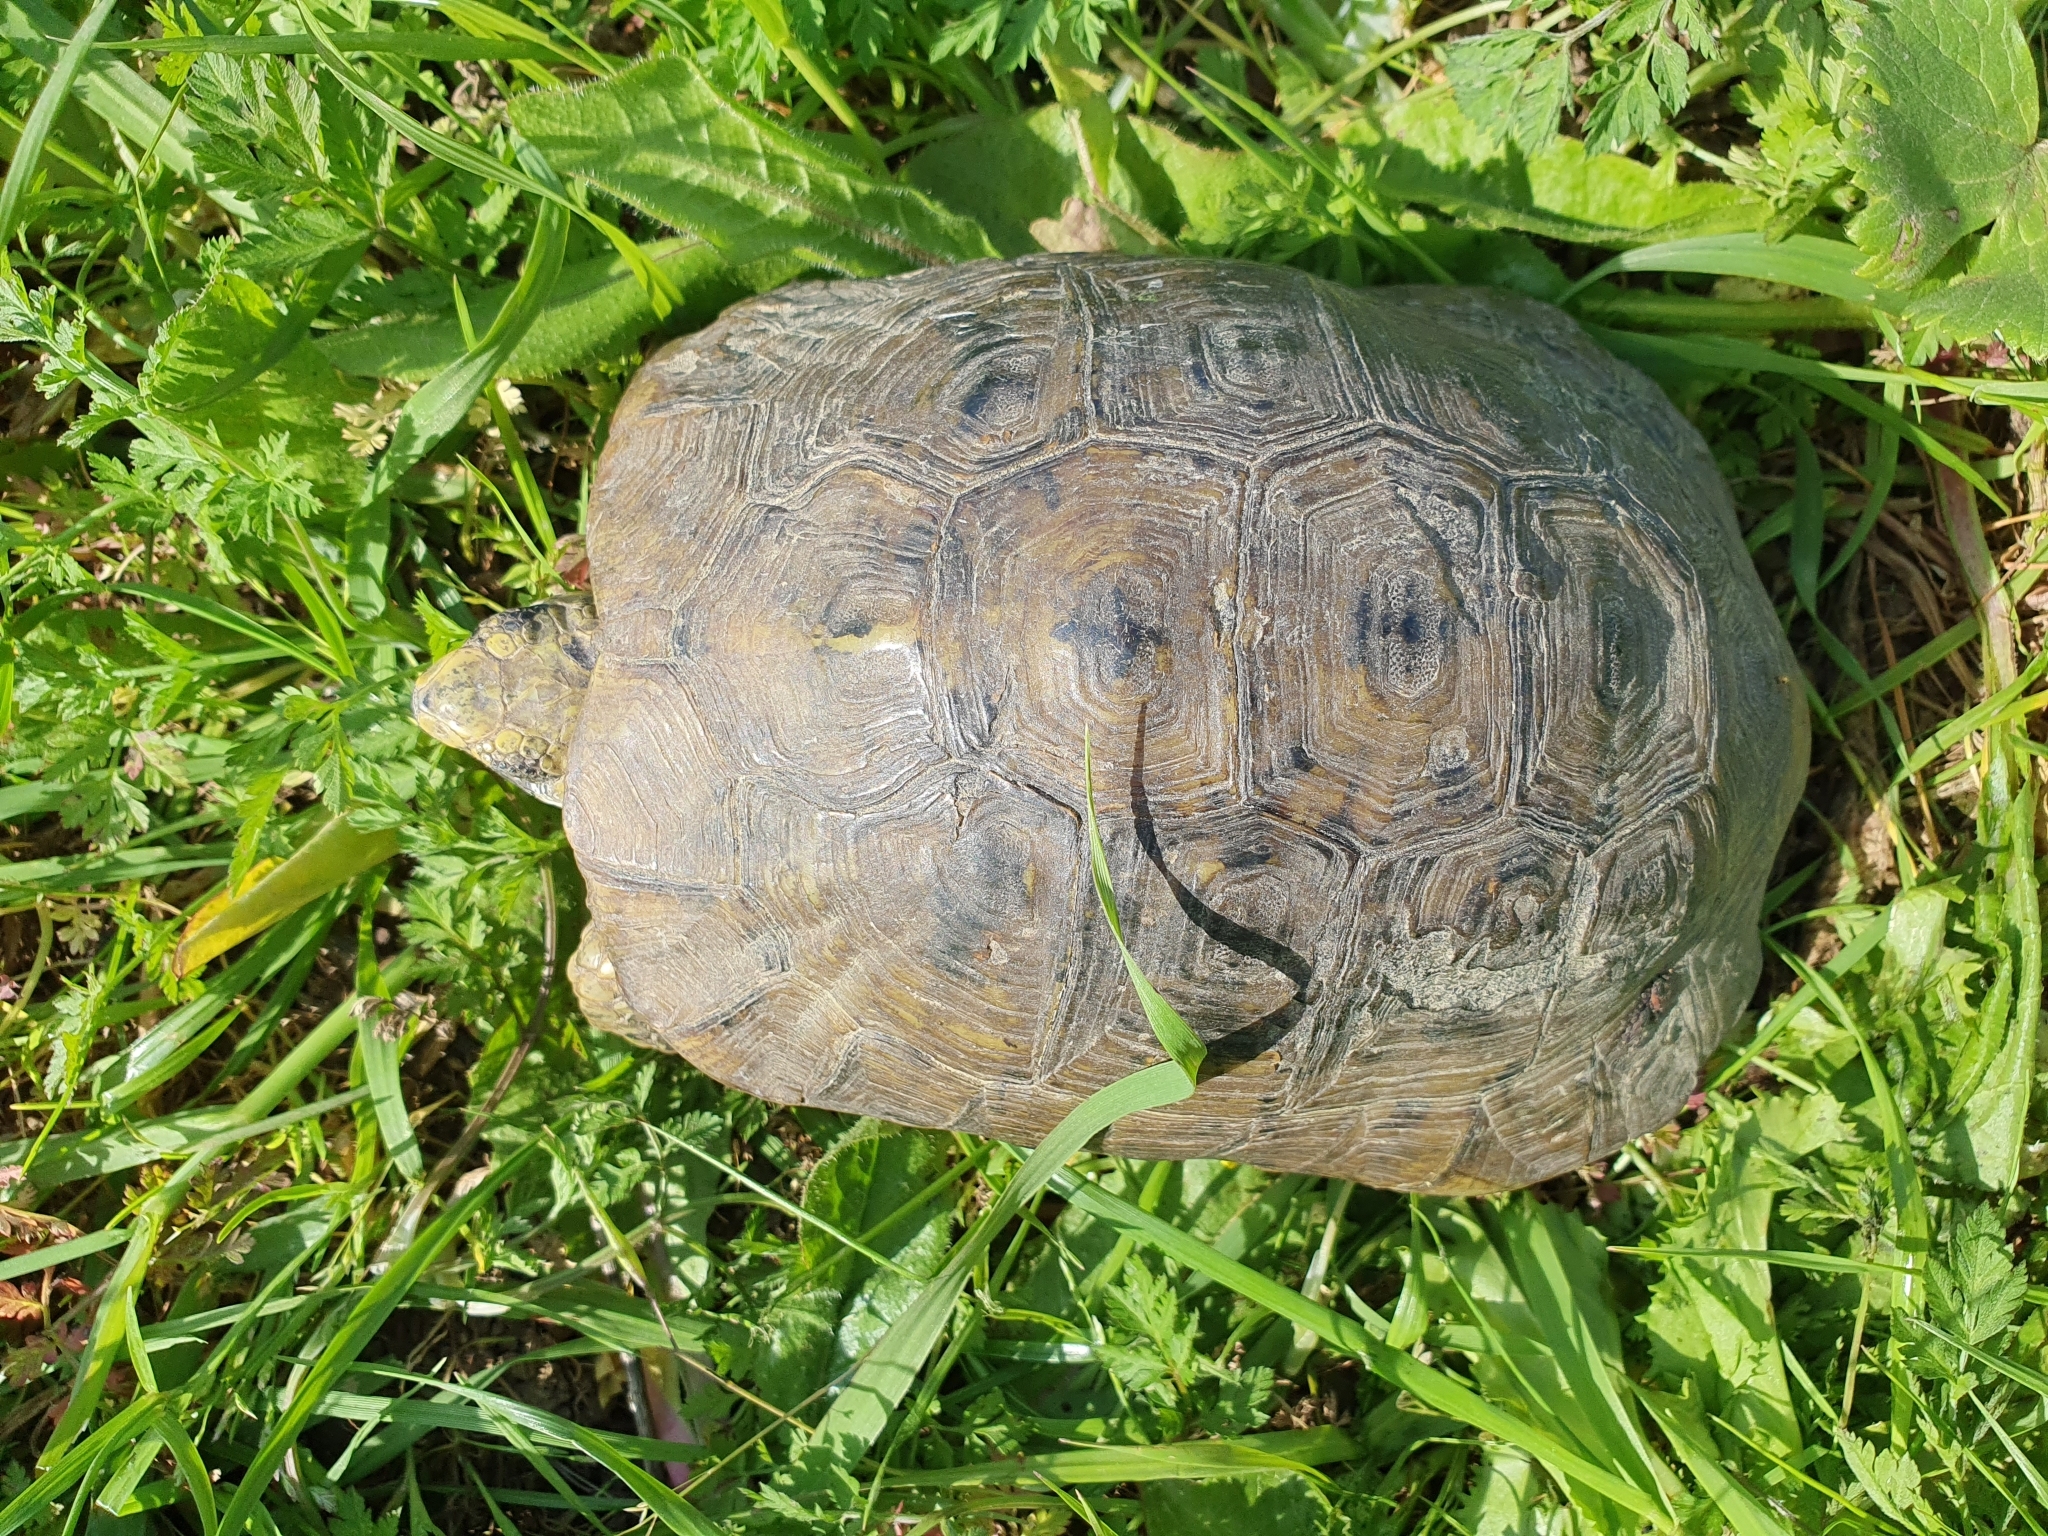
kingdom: Animalia
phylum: Chordata
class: Testudines
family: Testudinidae
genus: Testudo
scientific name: Testudo graeca
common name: Common tortoise
